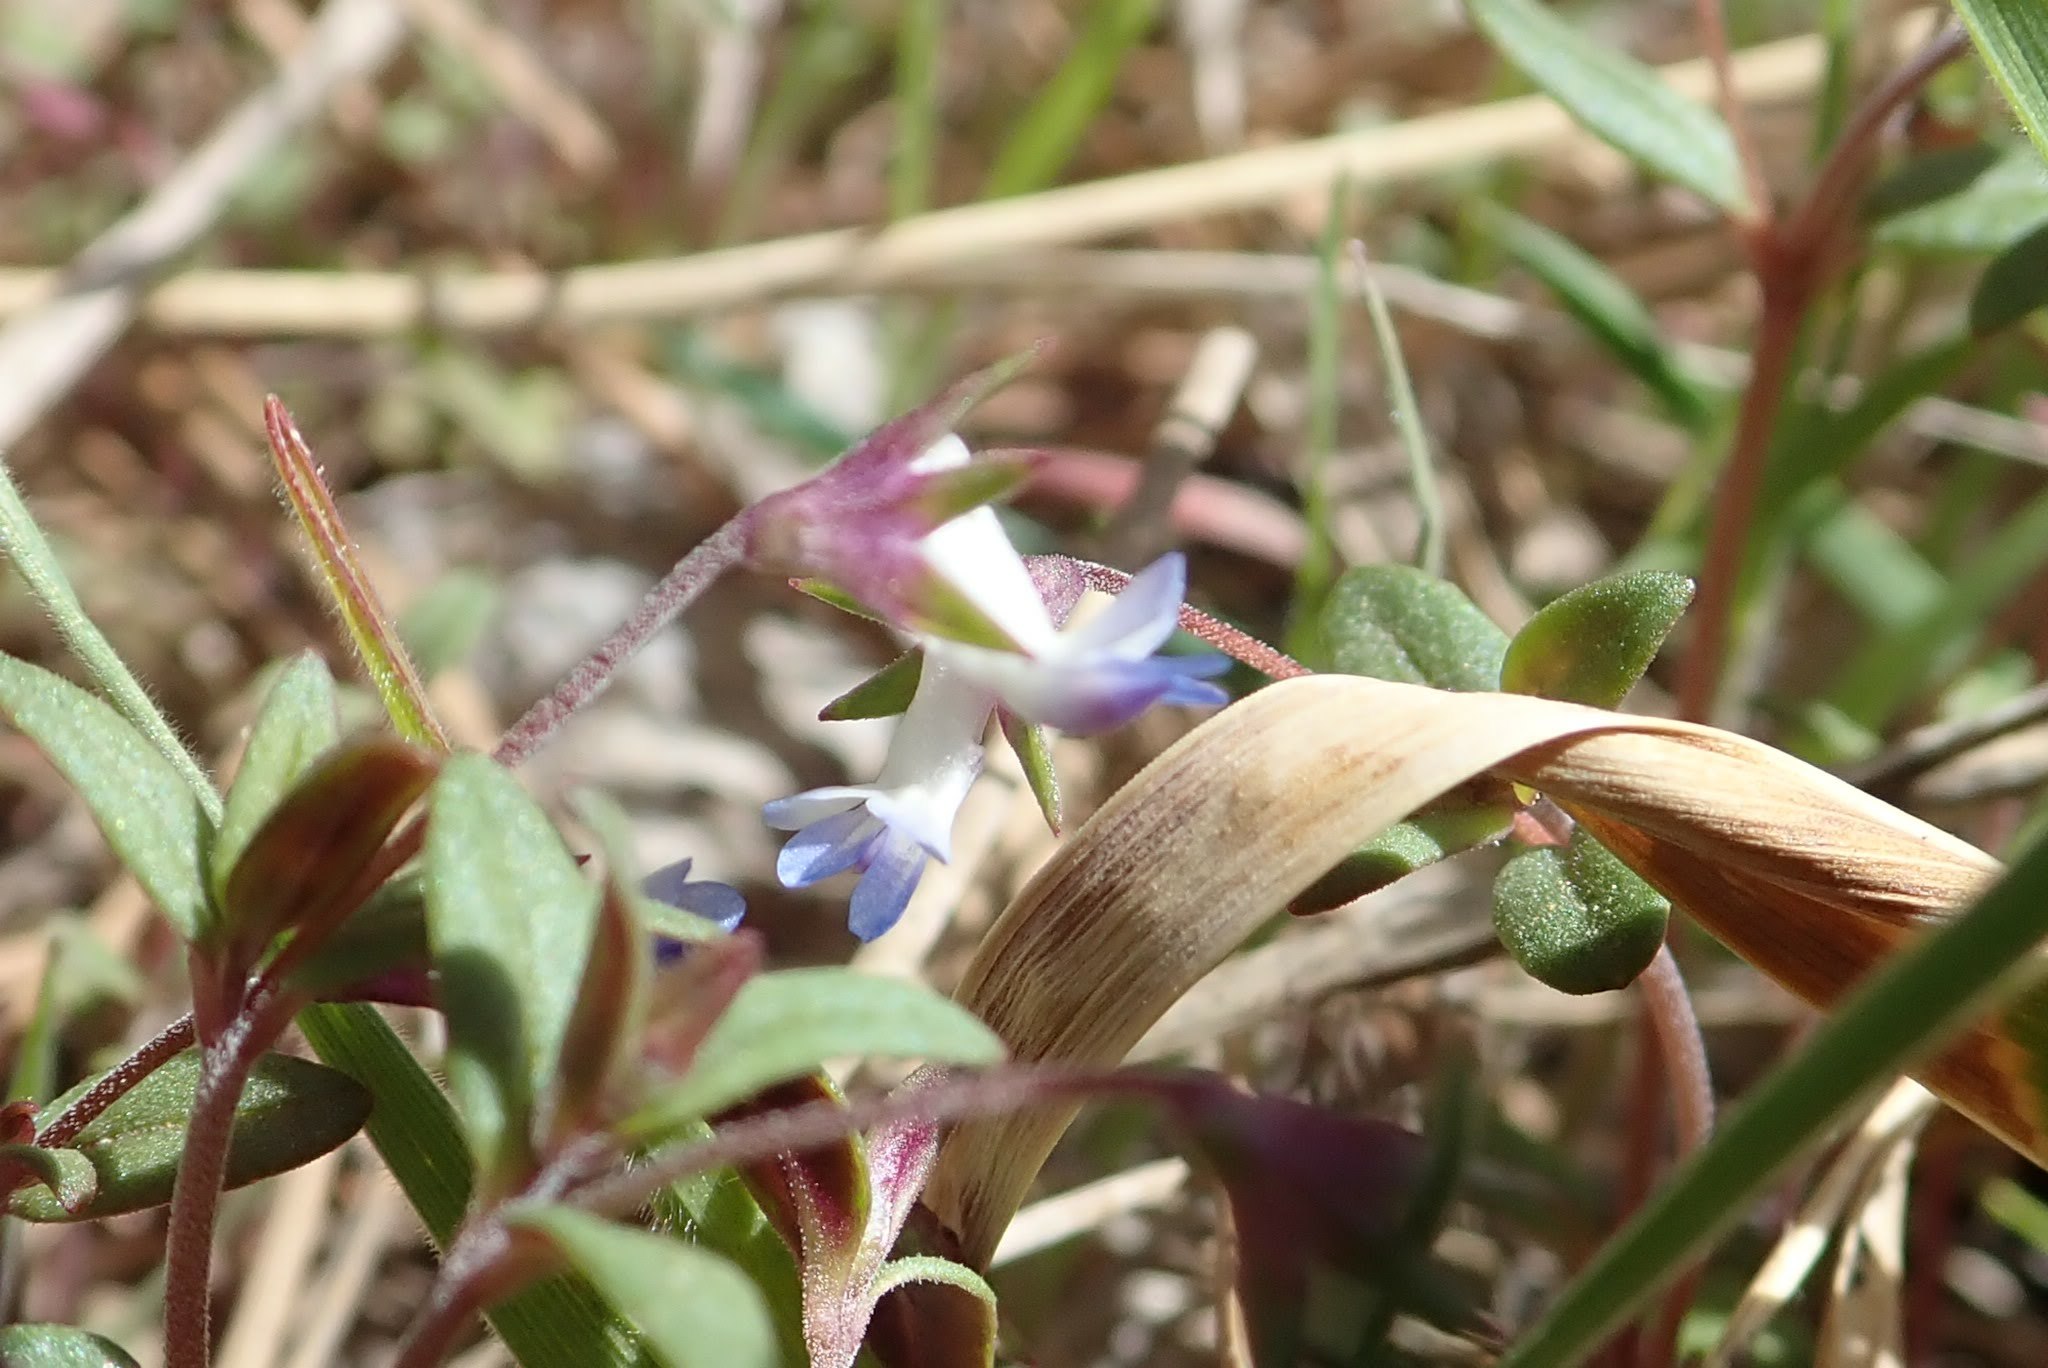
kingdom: Plantae
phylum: Tracheophyta
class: Magnoliopsida
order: Lamiales
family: Plantaginaceae
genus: Collinsia
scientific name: Collinsia parviflora
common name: Blue-lips
